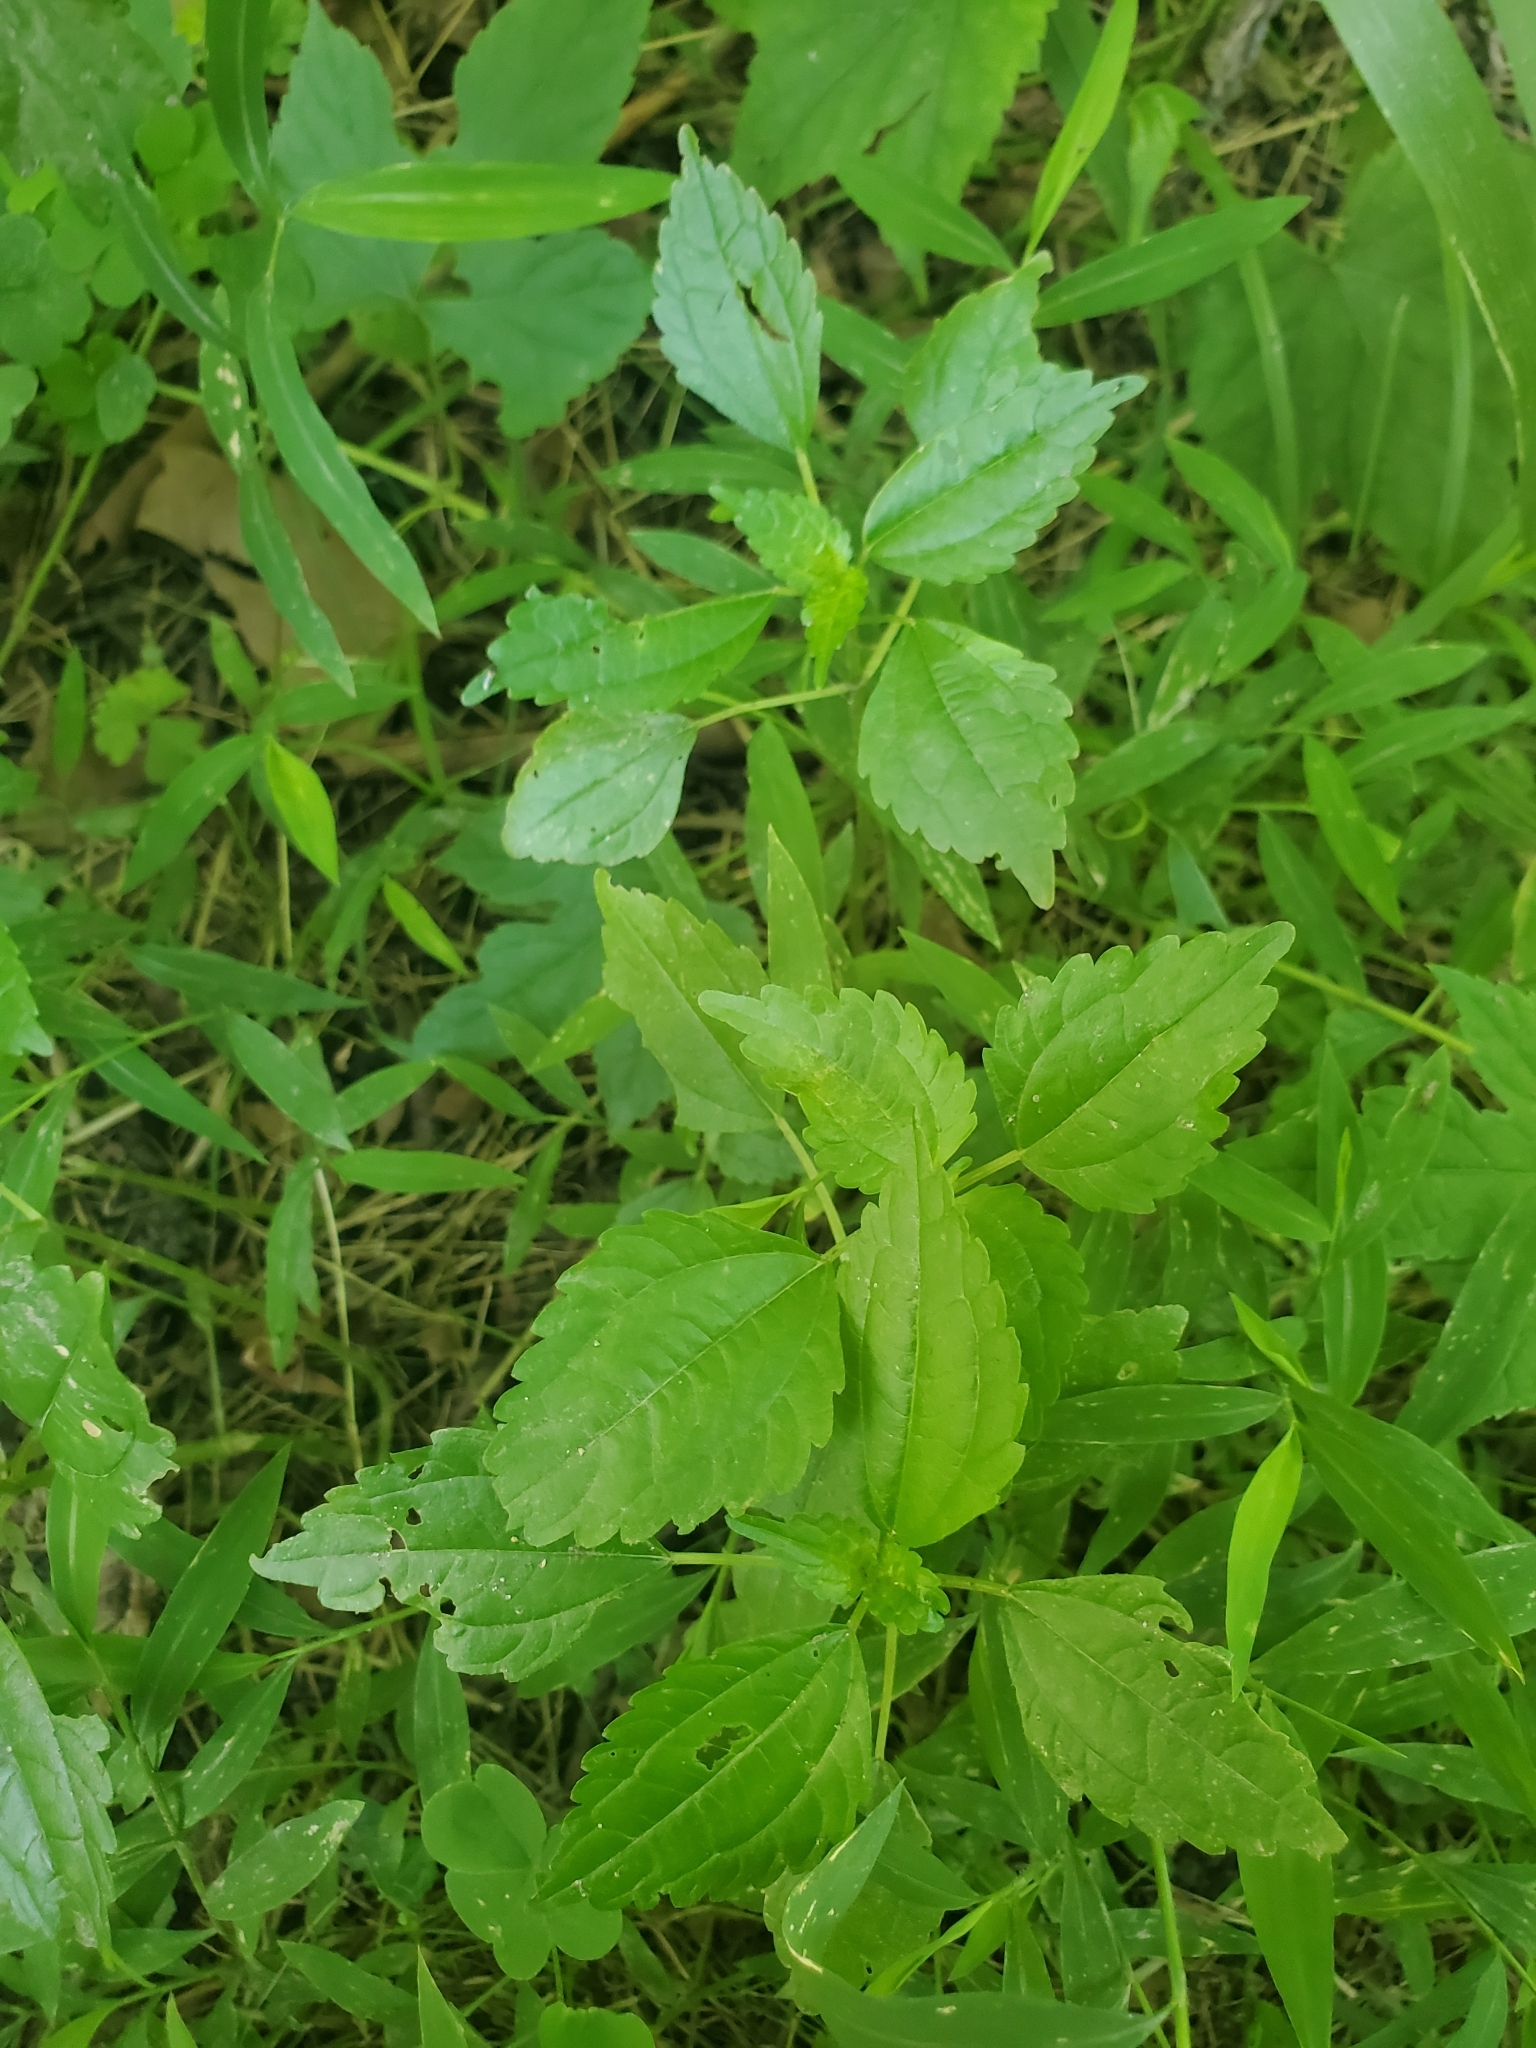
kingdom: Plantae
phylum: Tracheophyta
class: Magnoliopsida
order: Rosales
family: Urticaceae
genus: Pilea
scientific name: Pilea pumila
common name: Clearweed
